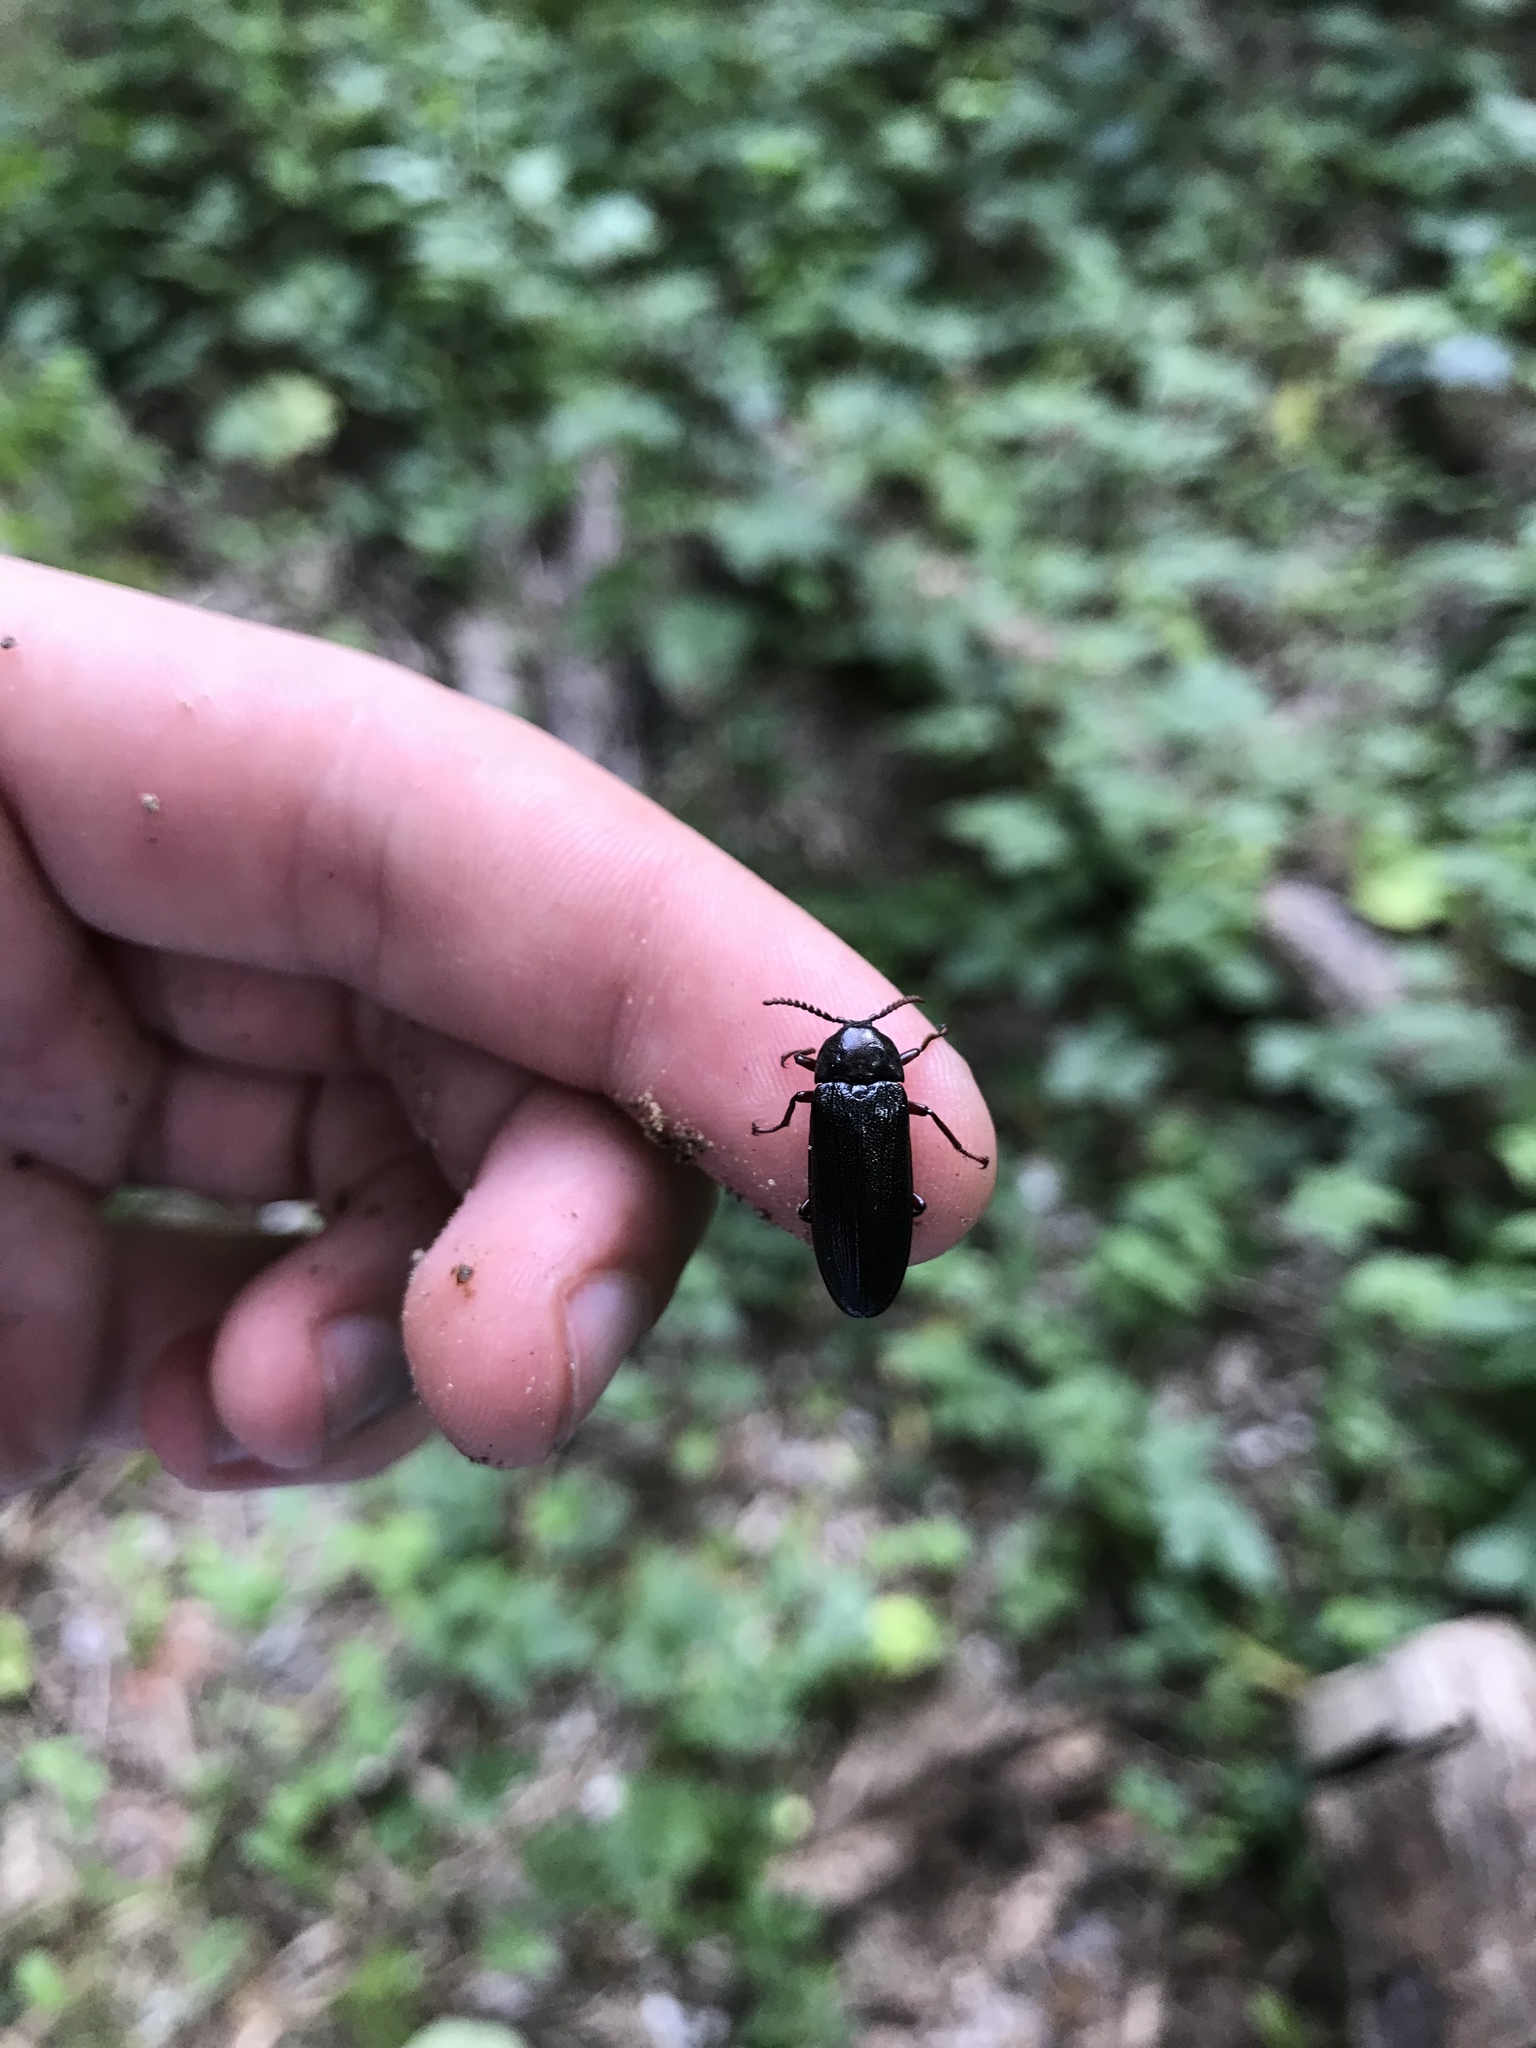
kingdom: Animalia
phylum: Arthropoda
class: Insecta
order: Coleoptera
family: Callirhipidae
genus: Zenoa
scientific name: Zenoa picea
